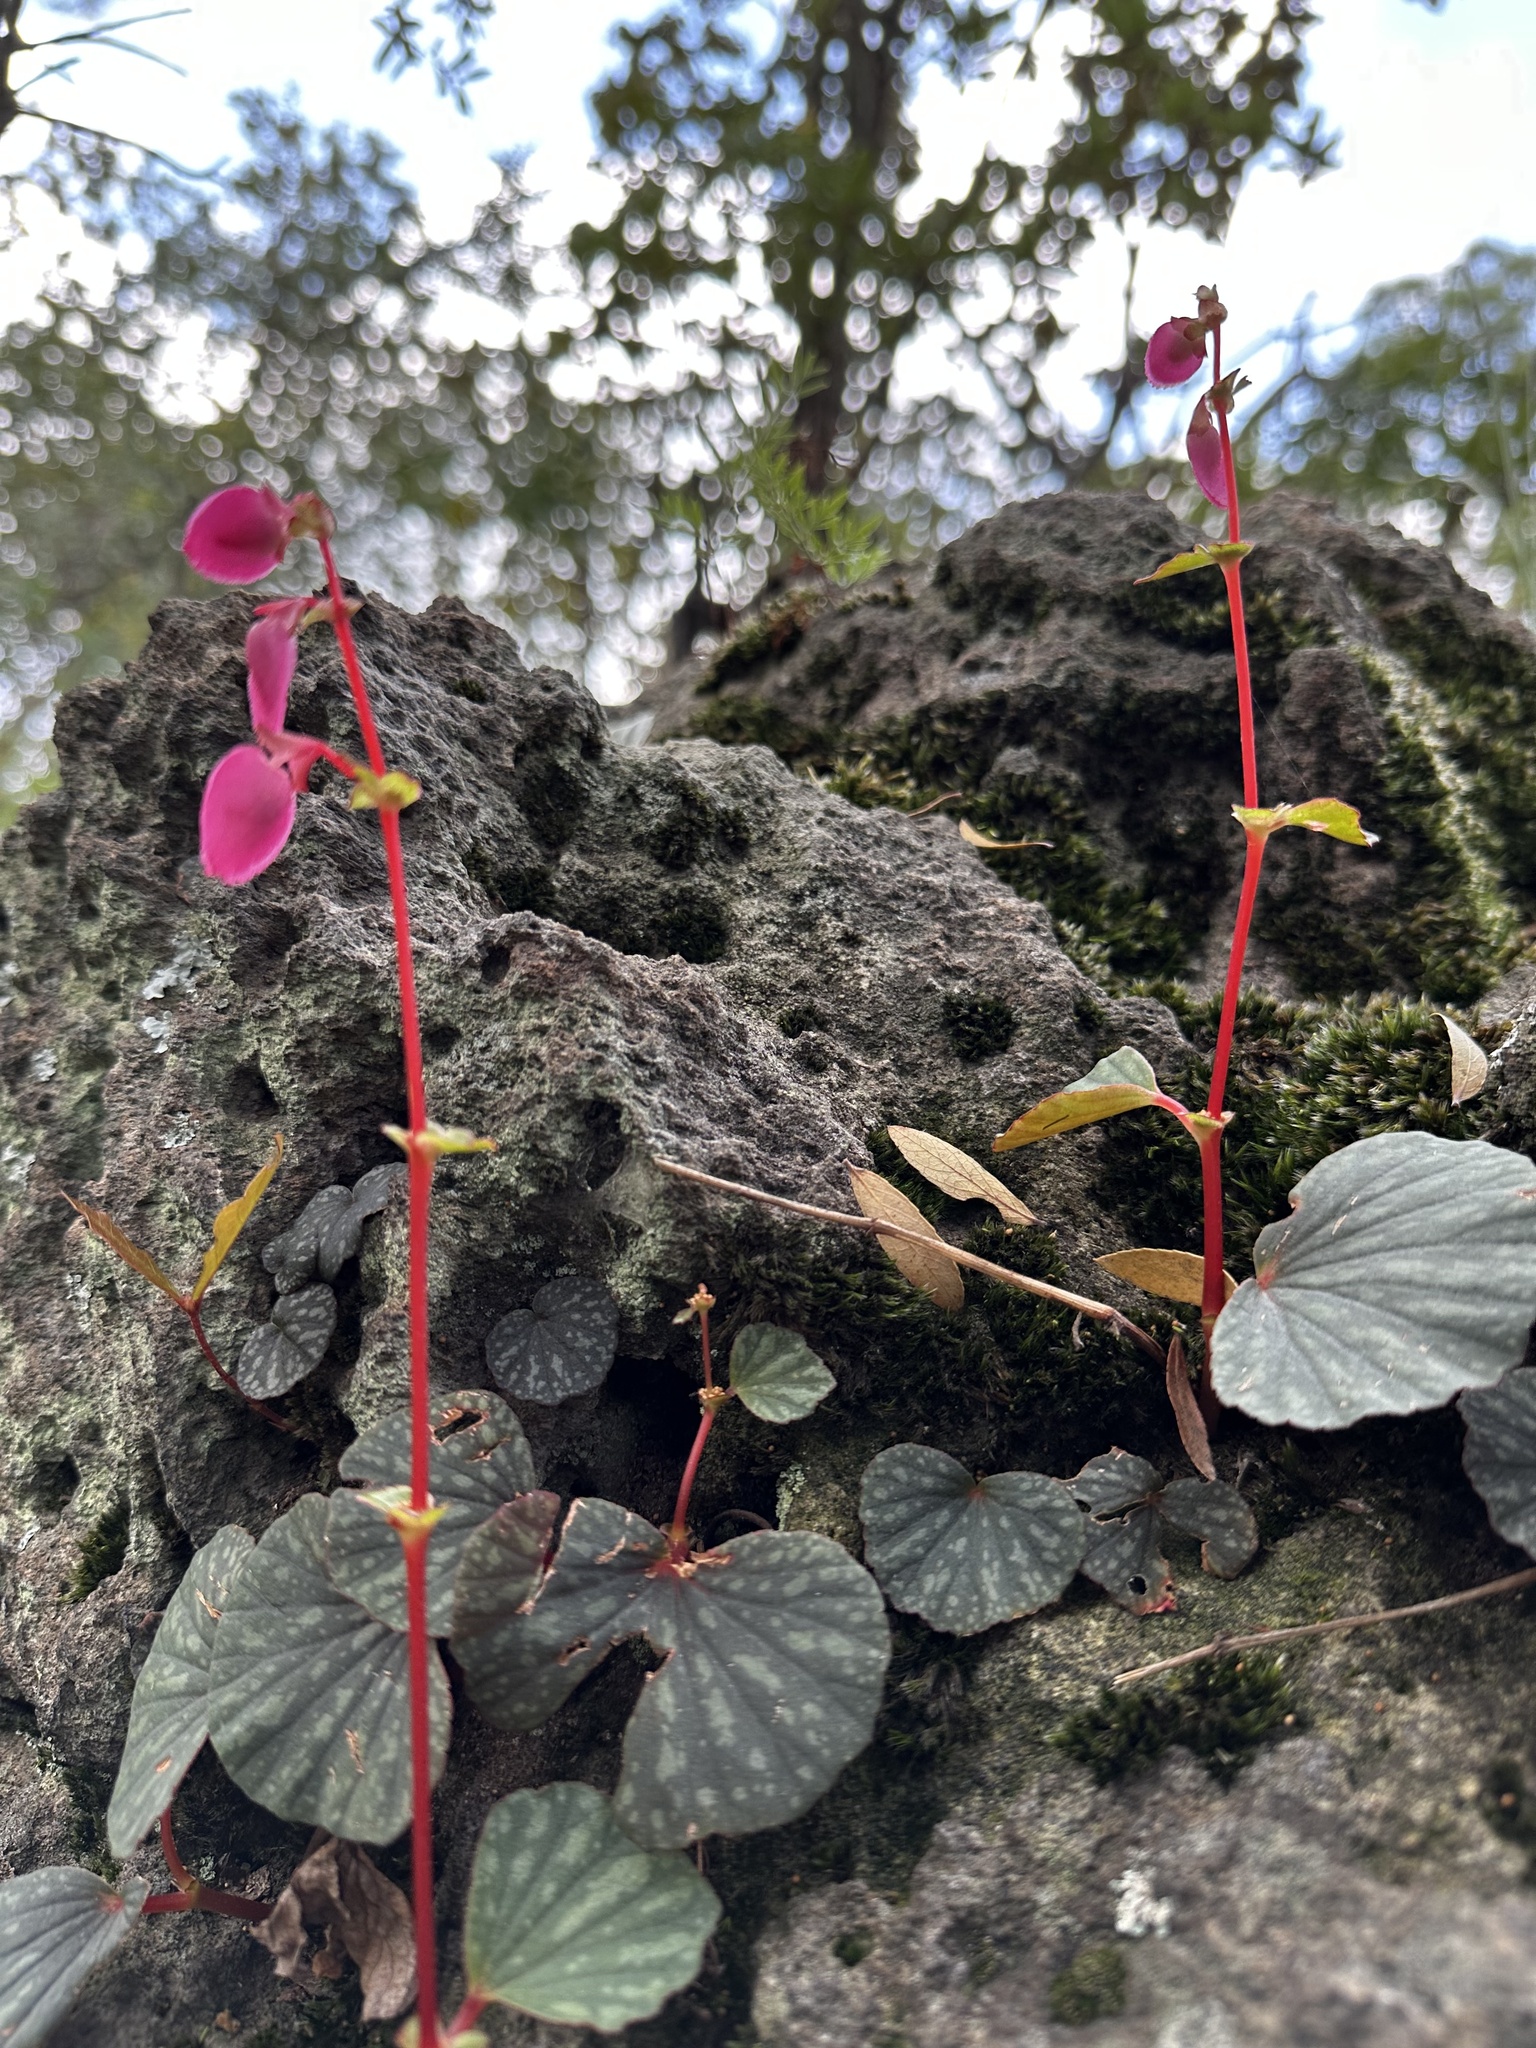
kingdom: Plantae
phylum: Tracheophyta
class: Magnoliopsida
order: Cucurbitales
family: Begoniaceae
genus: Begonia
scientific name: Begonia tapatia
